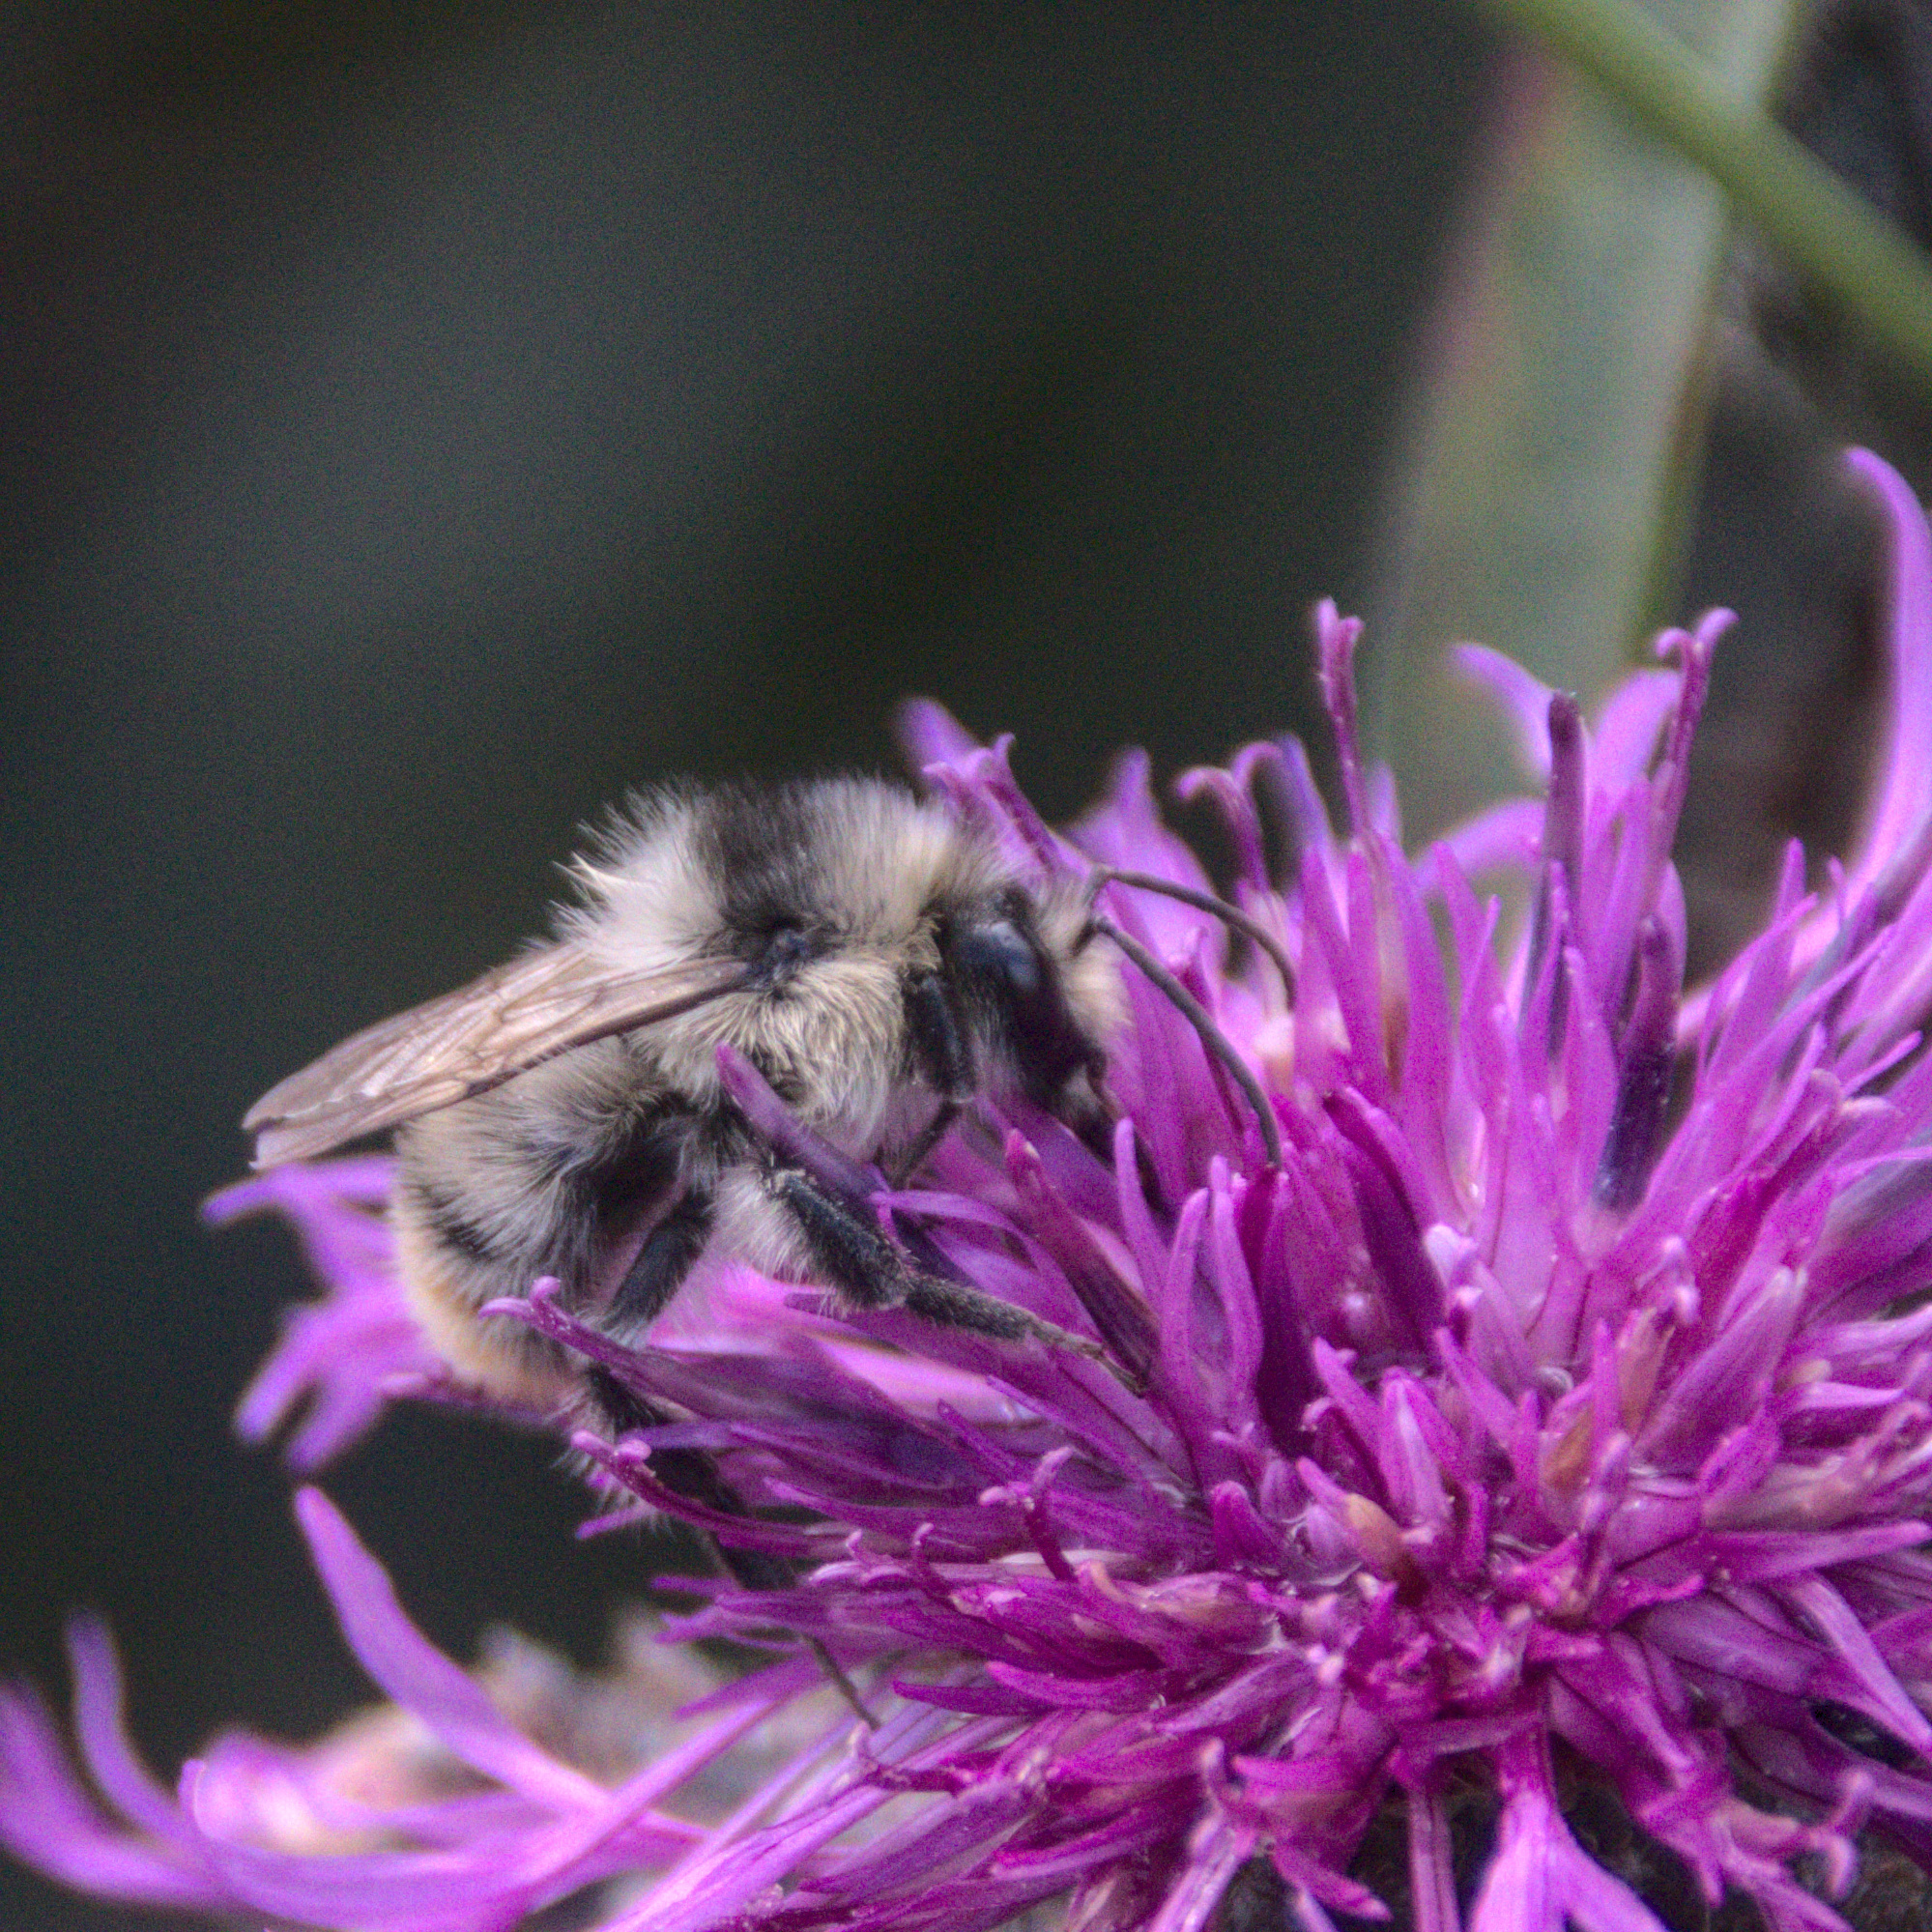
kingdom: Animalia
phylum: Arthropoda
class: Insecta
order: Hymenoptera
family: Apidae
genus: Bombus
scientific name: Bombus sylvarum
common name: Shrill carder bee
